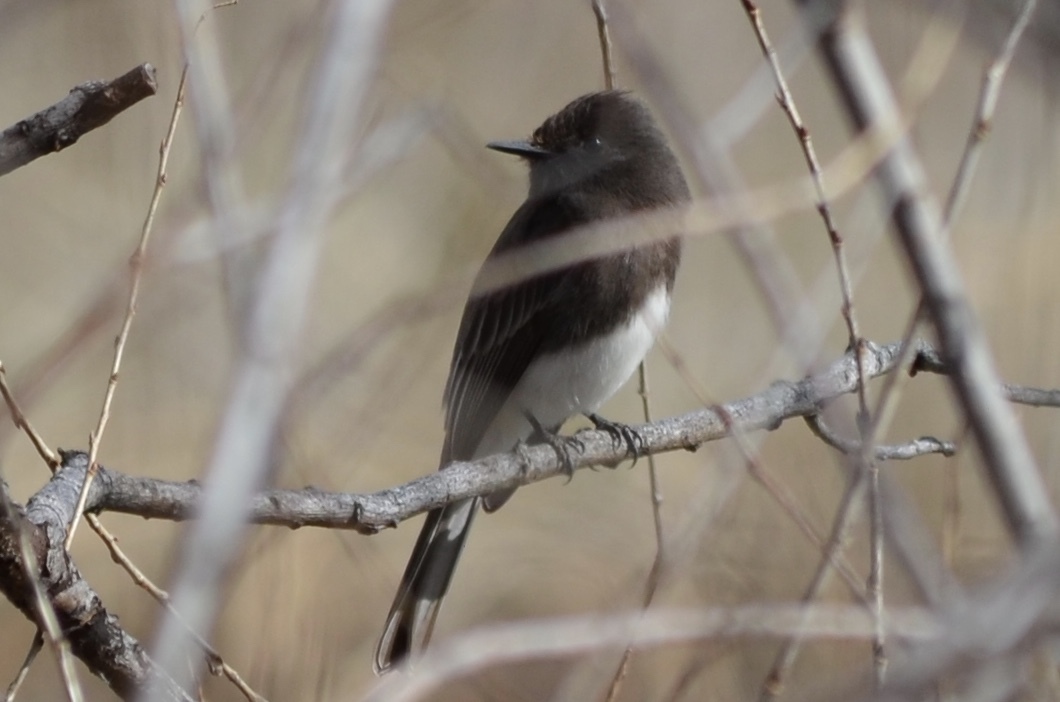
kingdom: Animalia
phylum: Chordata
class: Aves
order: Passeriformes
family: Tyrannidae
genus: Sayornis
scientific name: Sayornis nigricans
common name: Black phoebe
